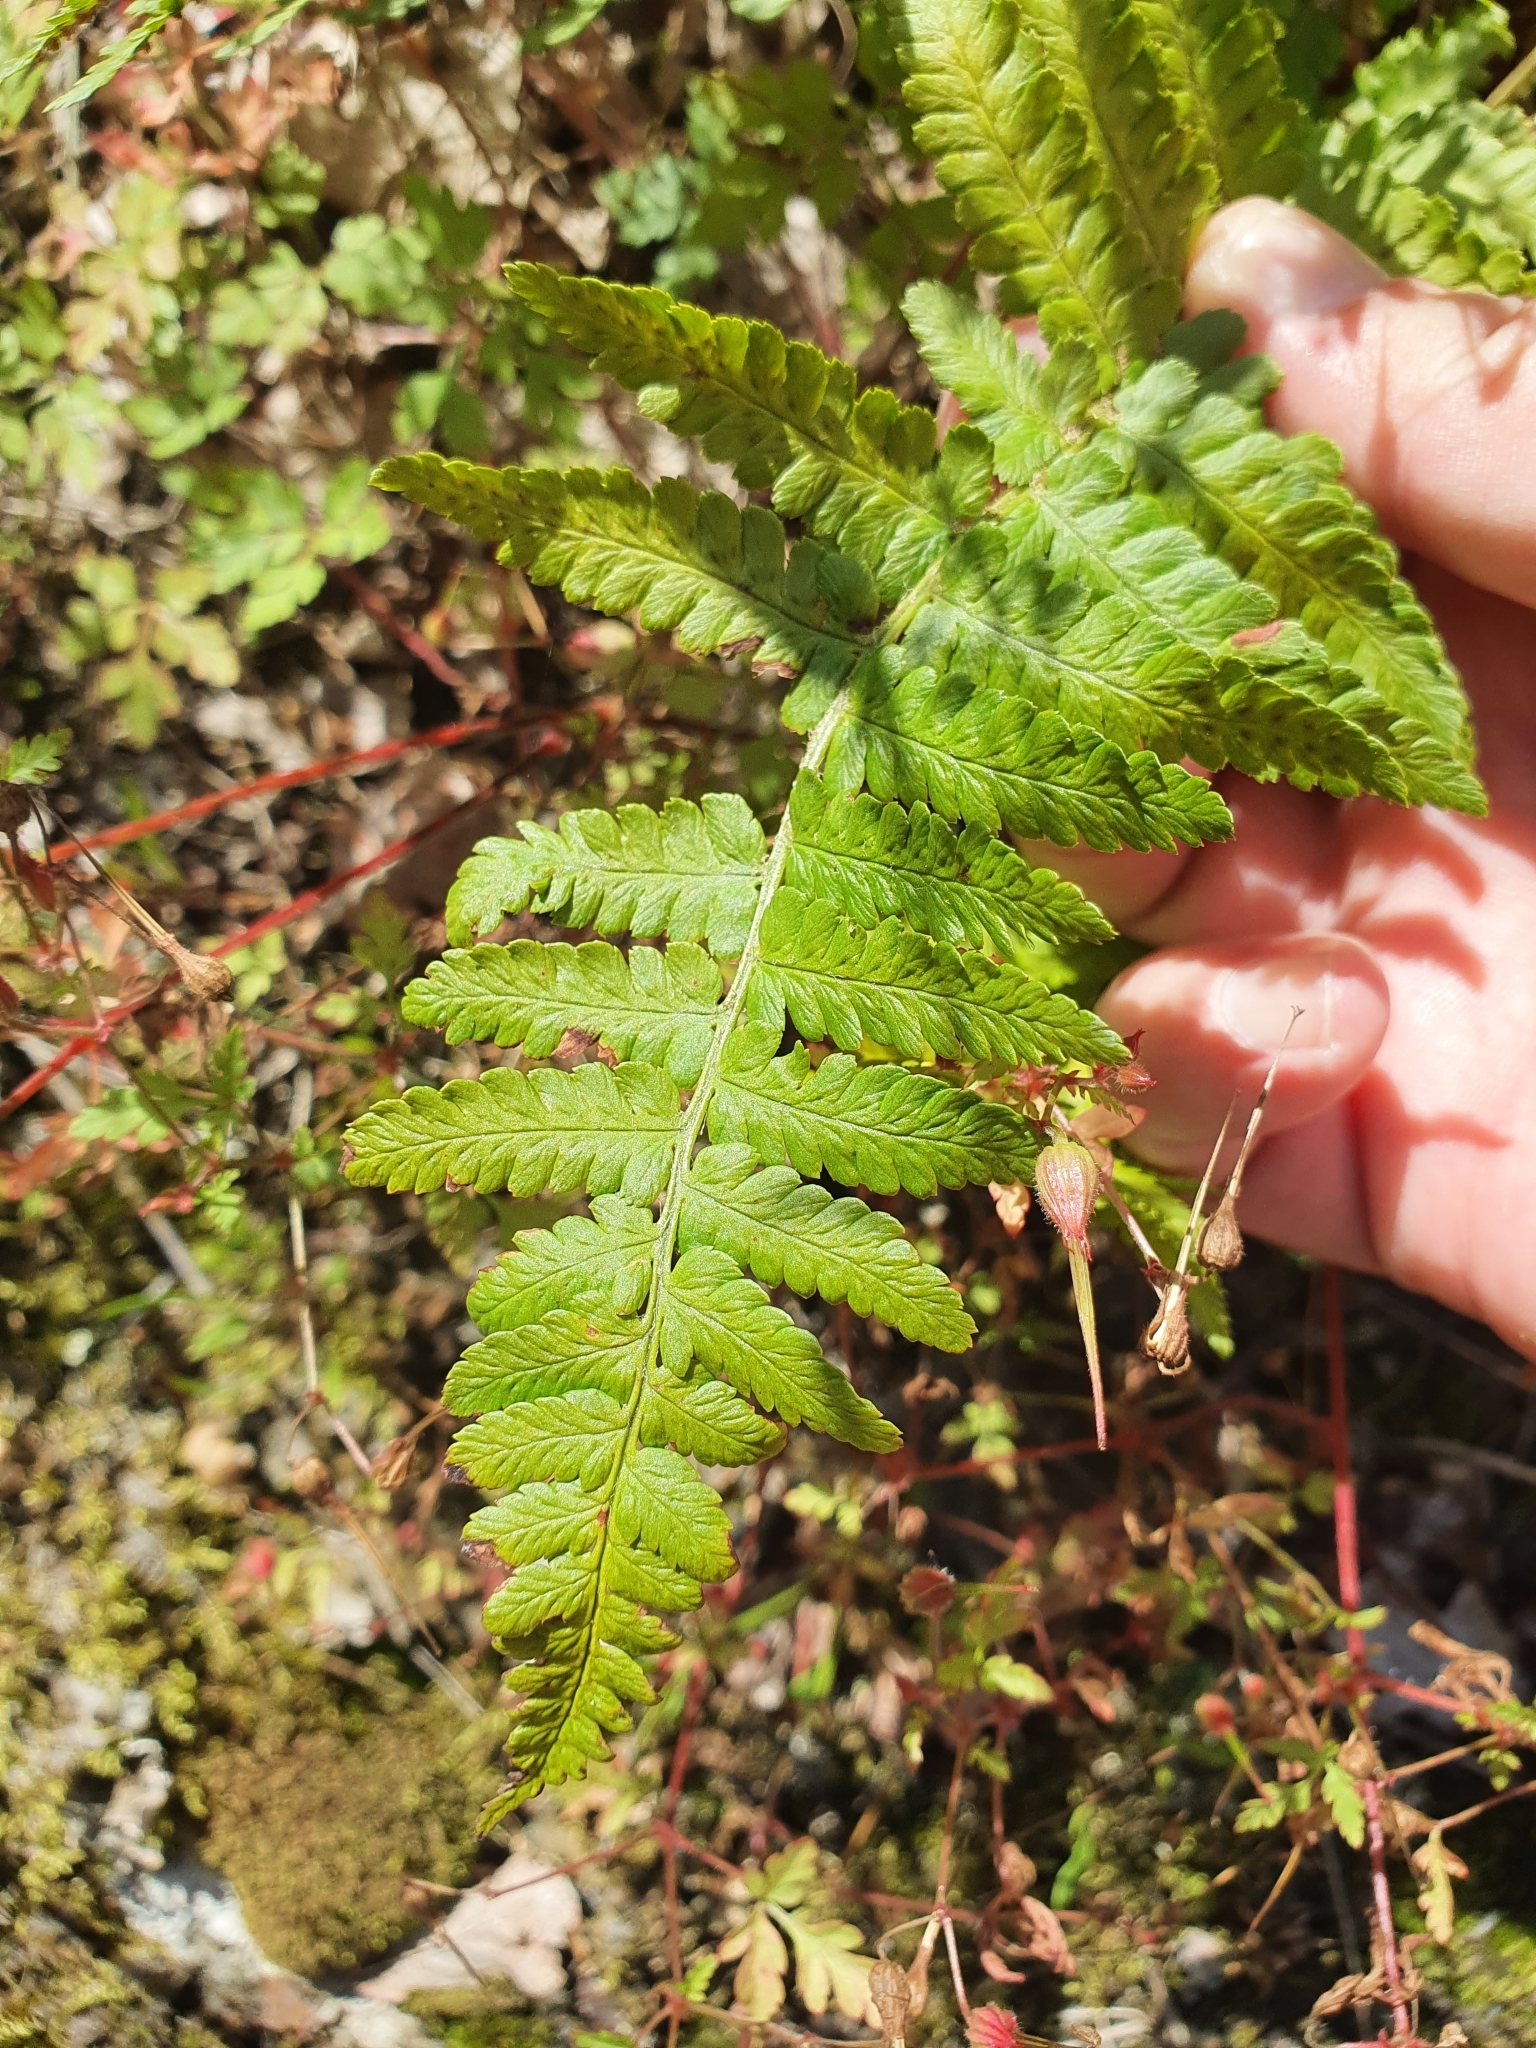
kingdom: Plantae
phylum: Tracheophyta
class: Polypodiopsida
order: Polypodiales
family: Dryopteridaceae
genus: Dryopteris
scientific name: Dryopteris filix-mas
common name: Male fern
